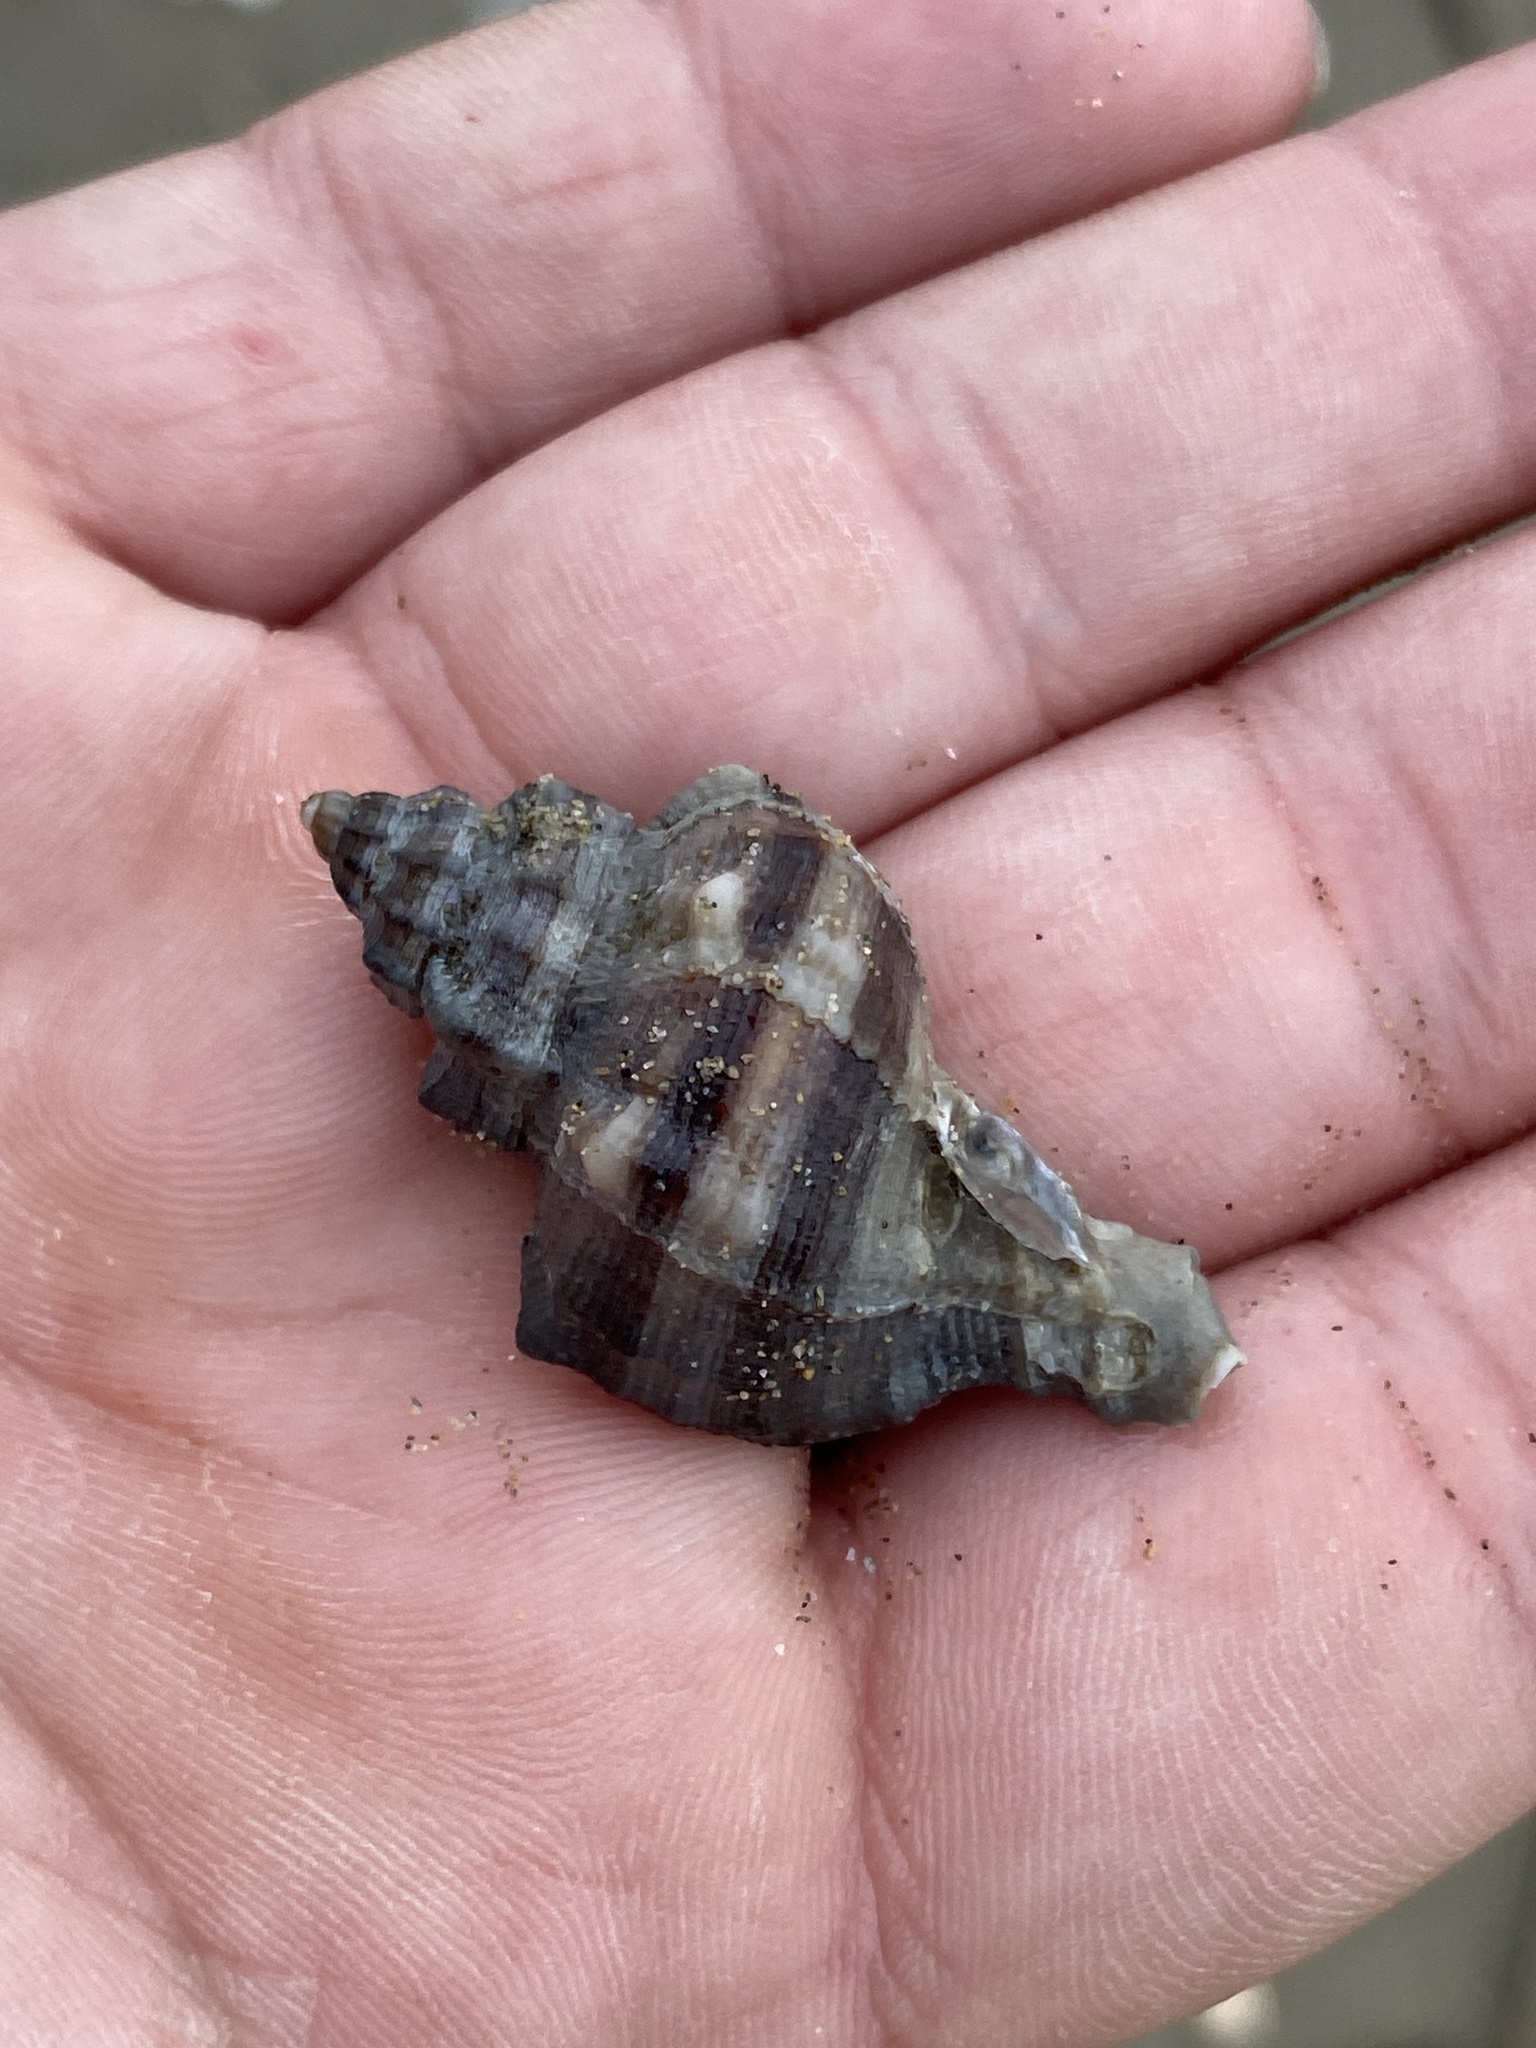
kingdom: Animalia
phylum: Mollusca
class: Gastropoda
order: Neogastropoda
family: Muricidae
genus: Hexaplex
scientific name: Hexaplex trunculus
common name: Banded dye-murex
